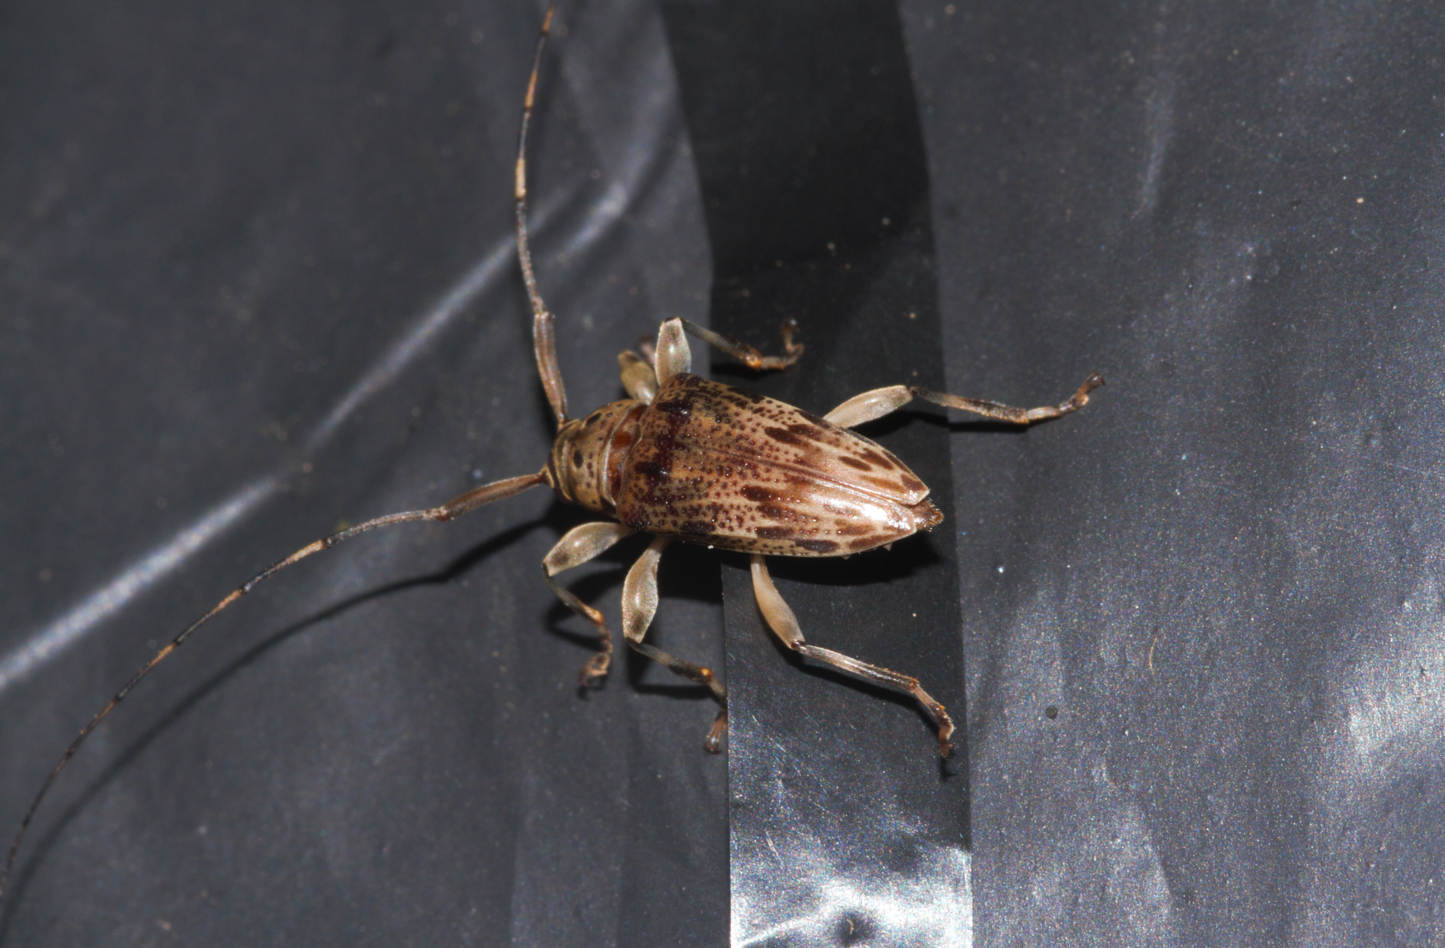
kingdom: Animalia
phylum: Arthropoda
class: Insecta
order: Coleoptera
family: Cerambycidae
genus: Nealcidion
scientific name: Nealcidion triangulare
